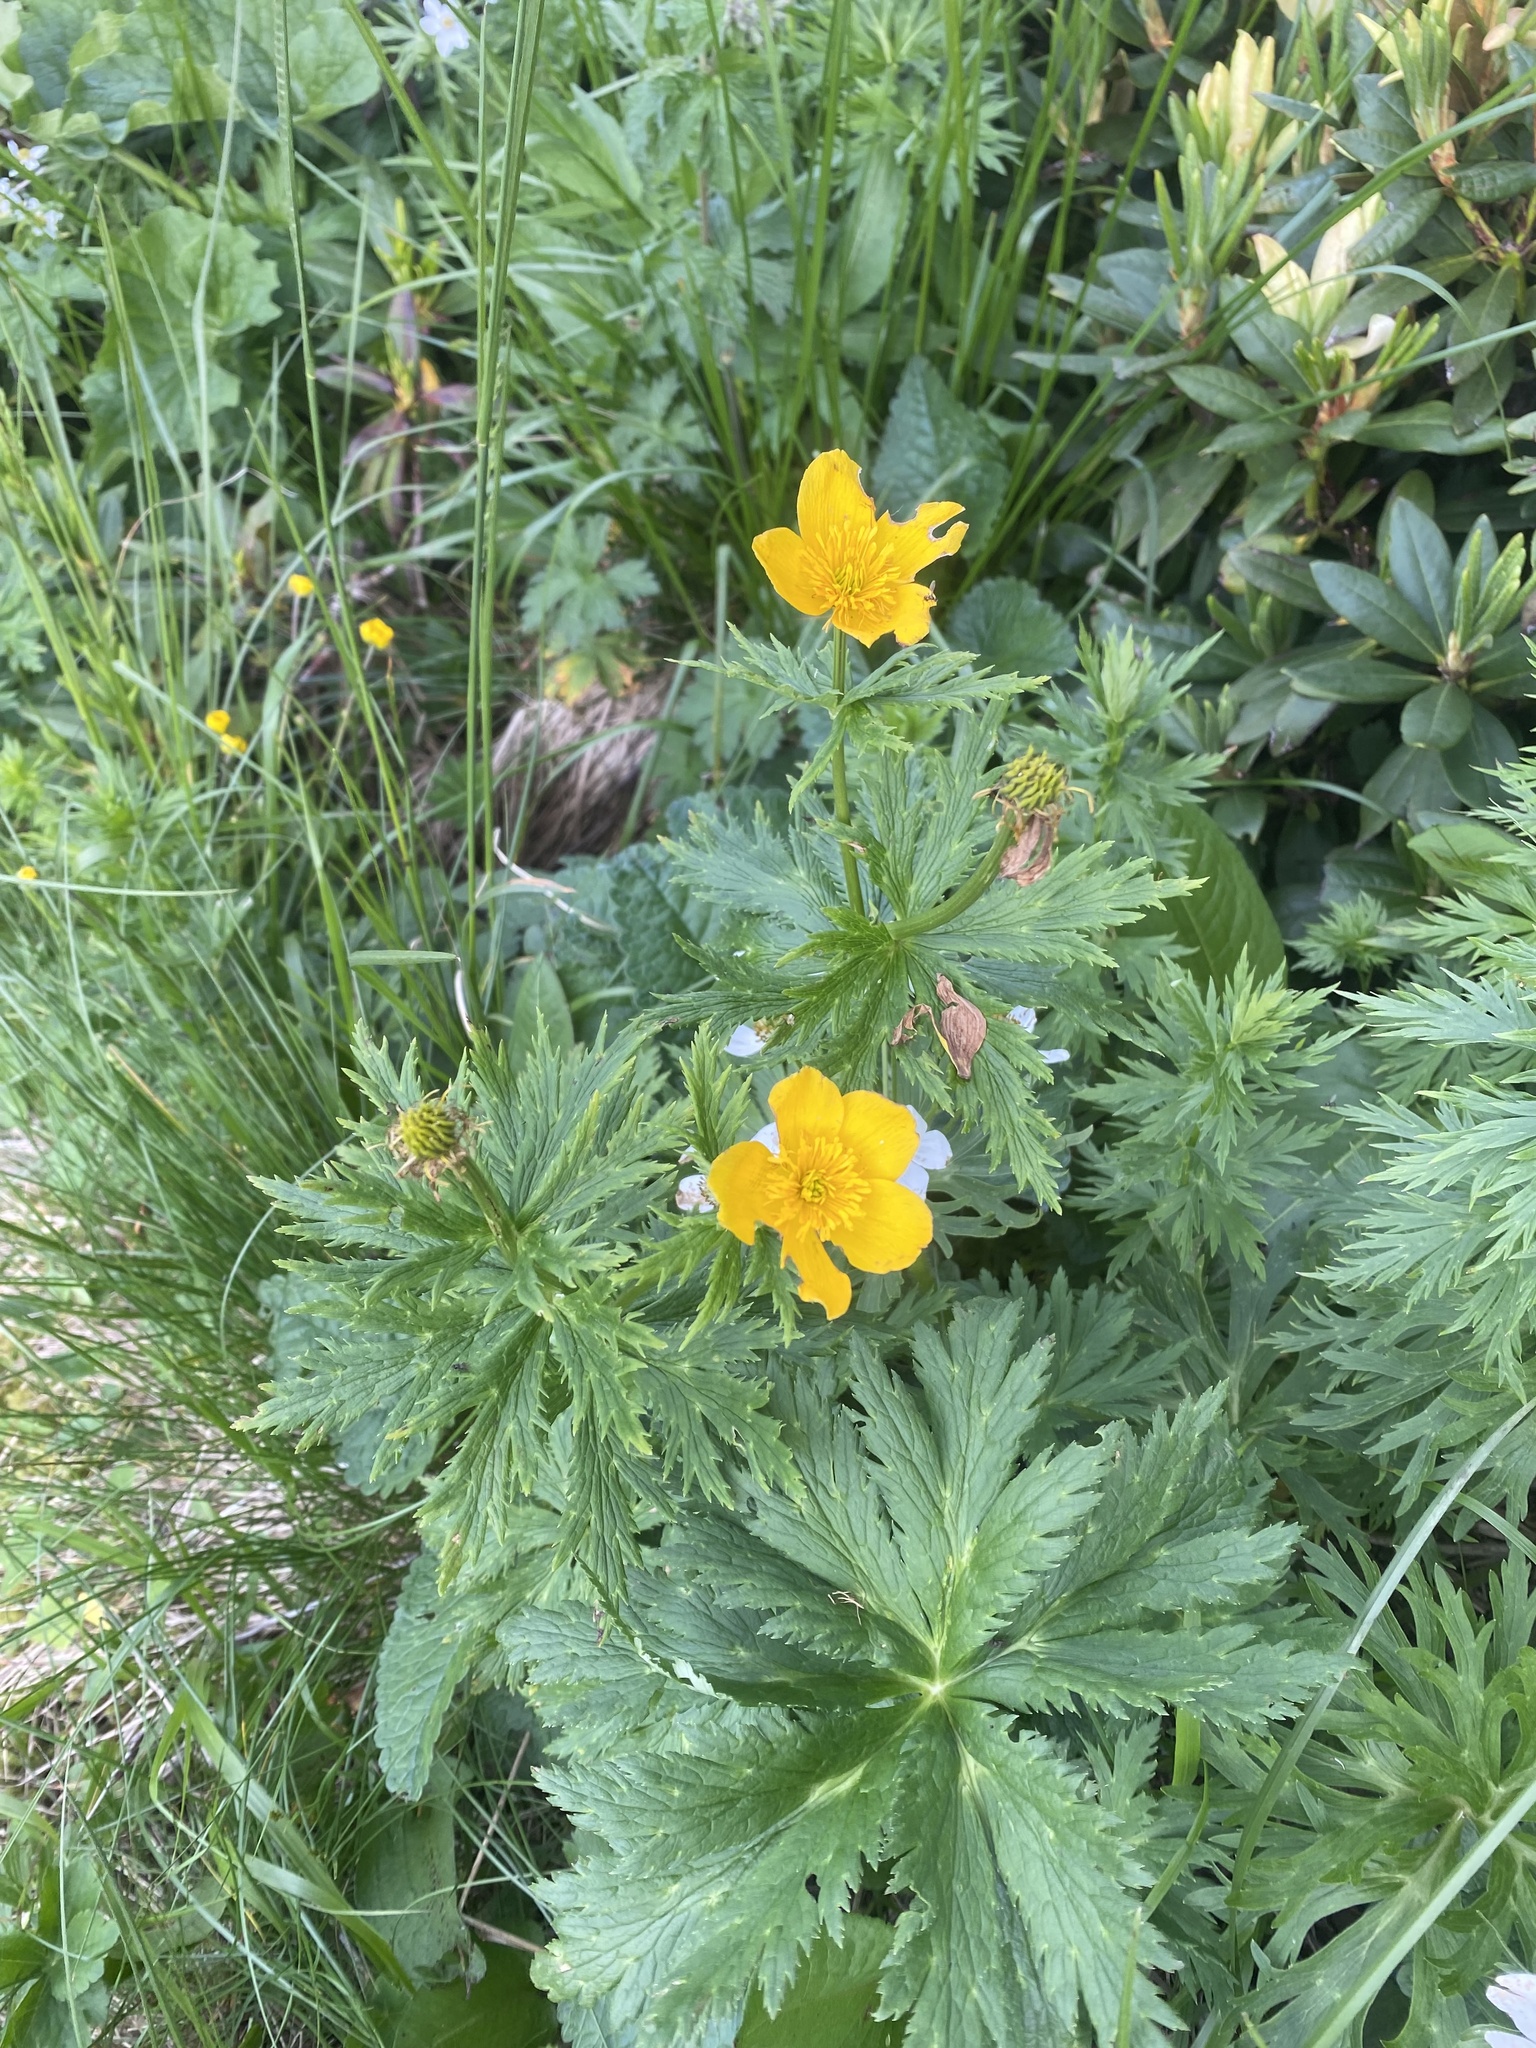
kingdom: Plantae
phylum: Tracheophyta
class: Magnoliopsida
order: Ranunculales
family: Ranunculaceae
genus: Trollius
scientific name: Trollius ranunculinus
